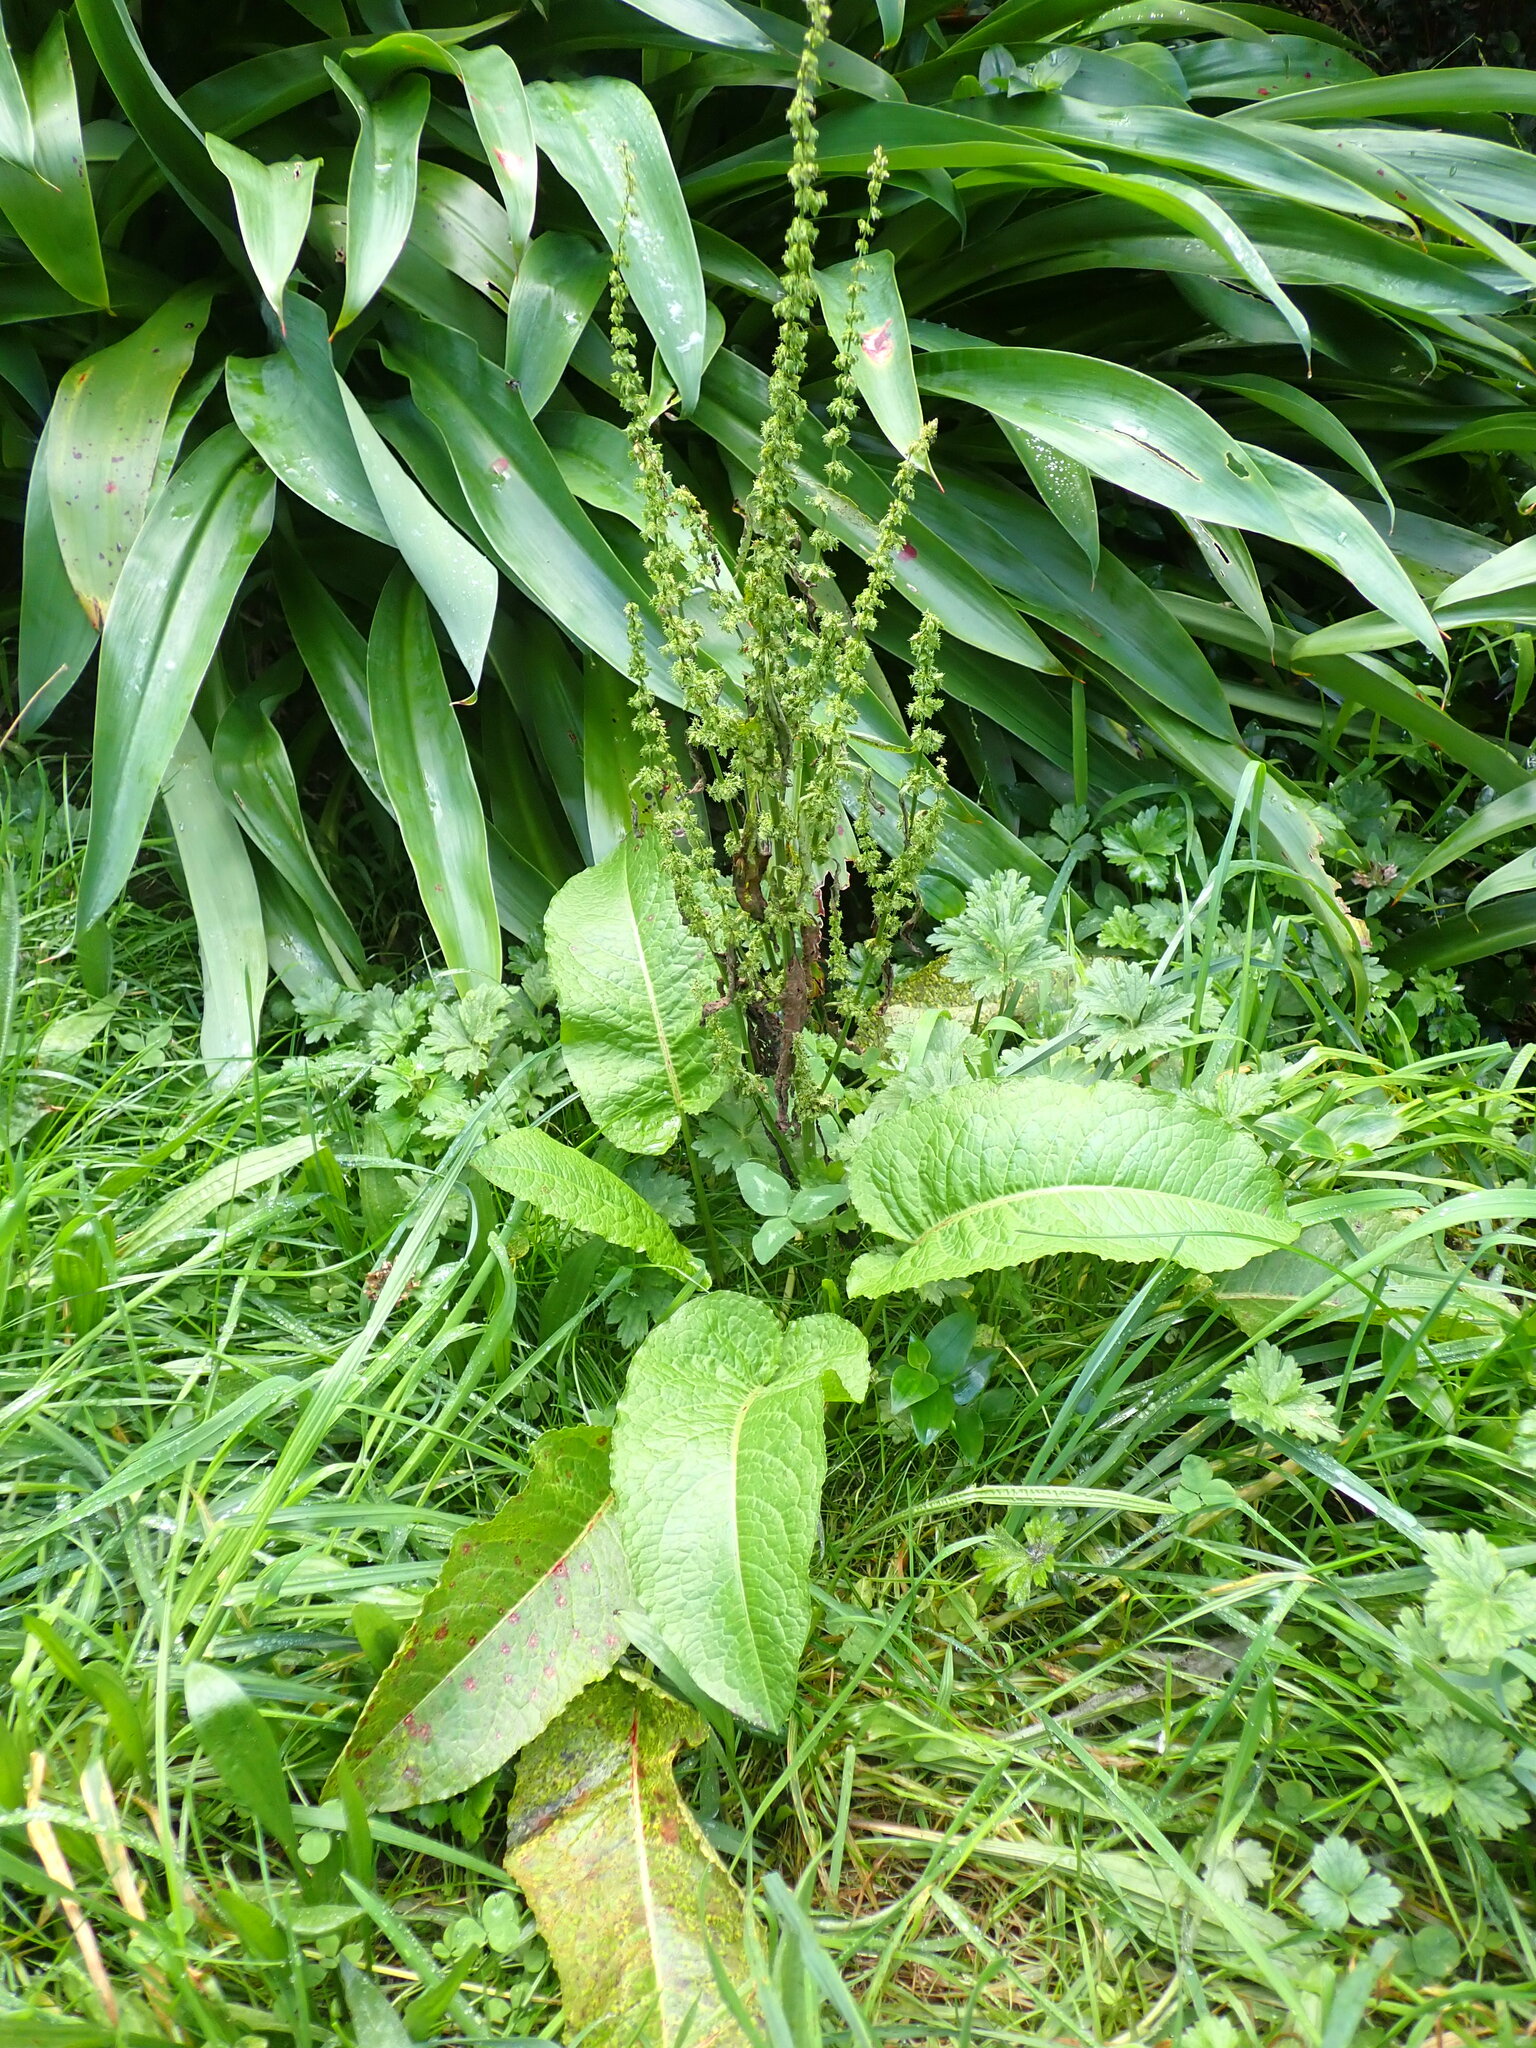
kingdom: Plantae
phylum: Tracheophyta
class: Magnoliopsida
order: Caryophyllales
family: Polygonaceae
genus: Rumex
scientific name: Rumex obtusifolius
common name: Bitter dock
